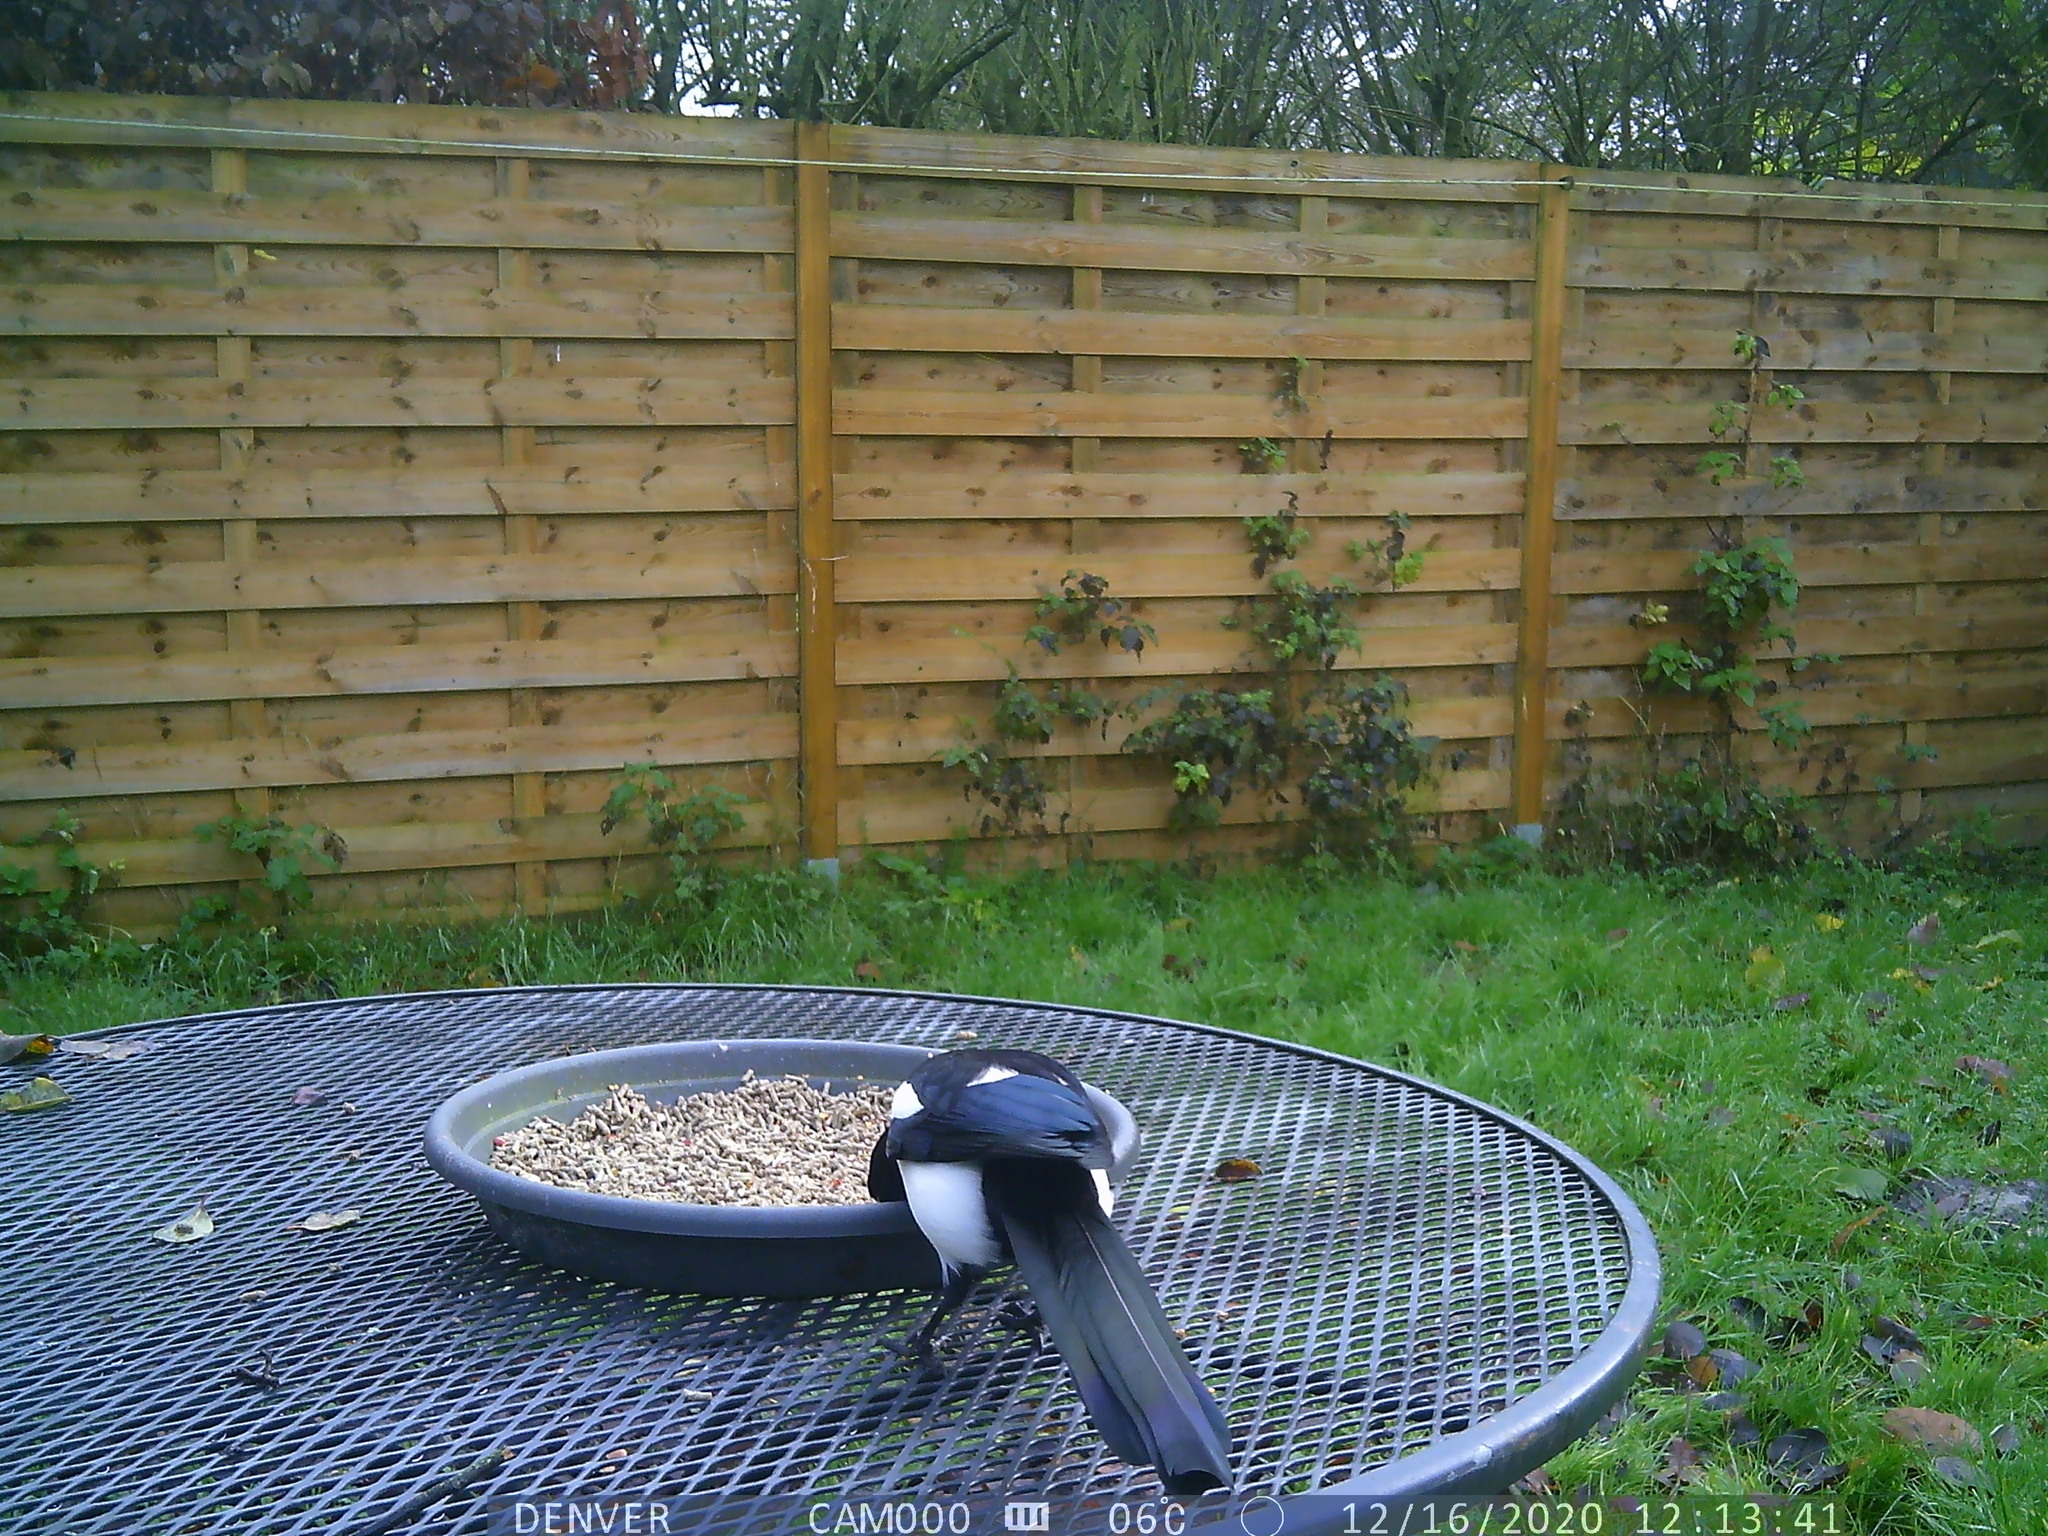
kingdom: Animalia
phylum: Chordata
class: Aves
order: Passeriformes
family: Corvidae
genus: Pica
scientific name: Pica pica
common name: Eurasian magpie
